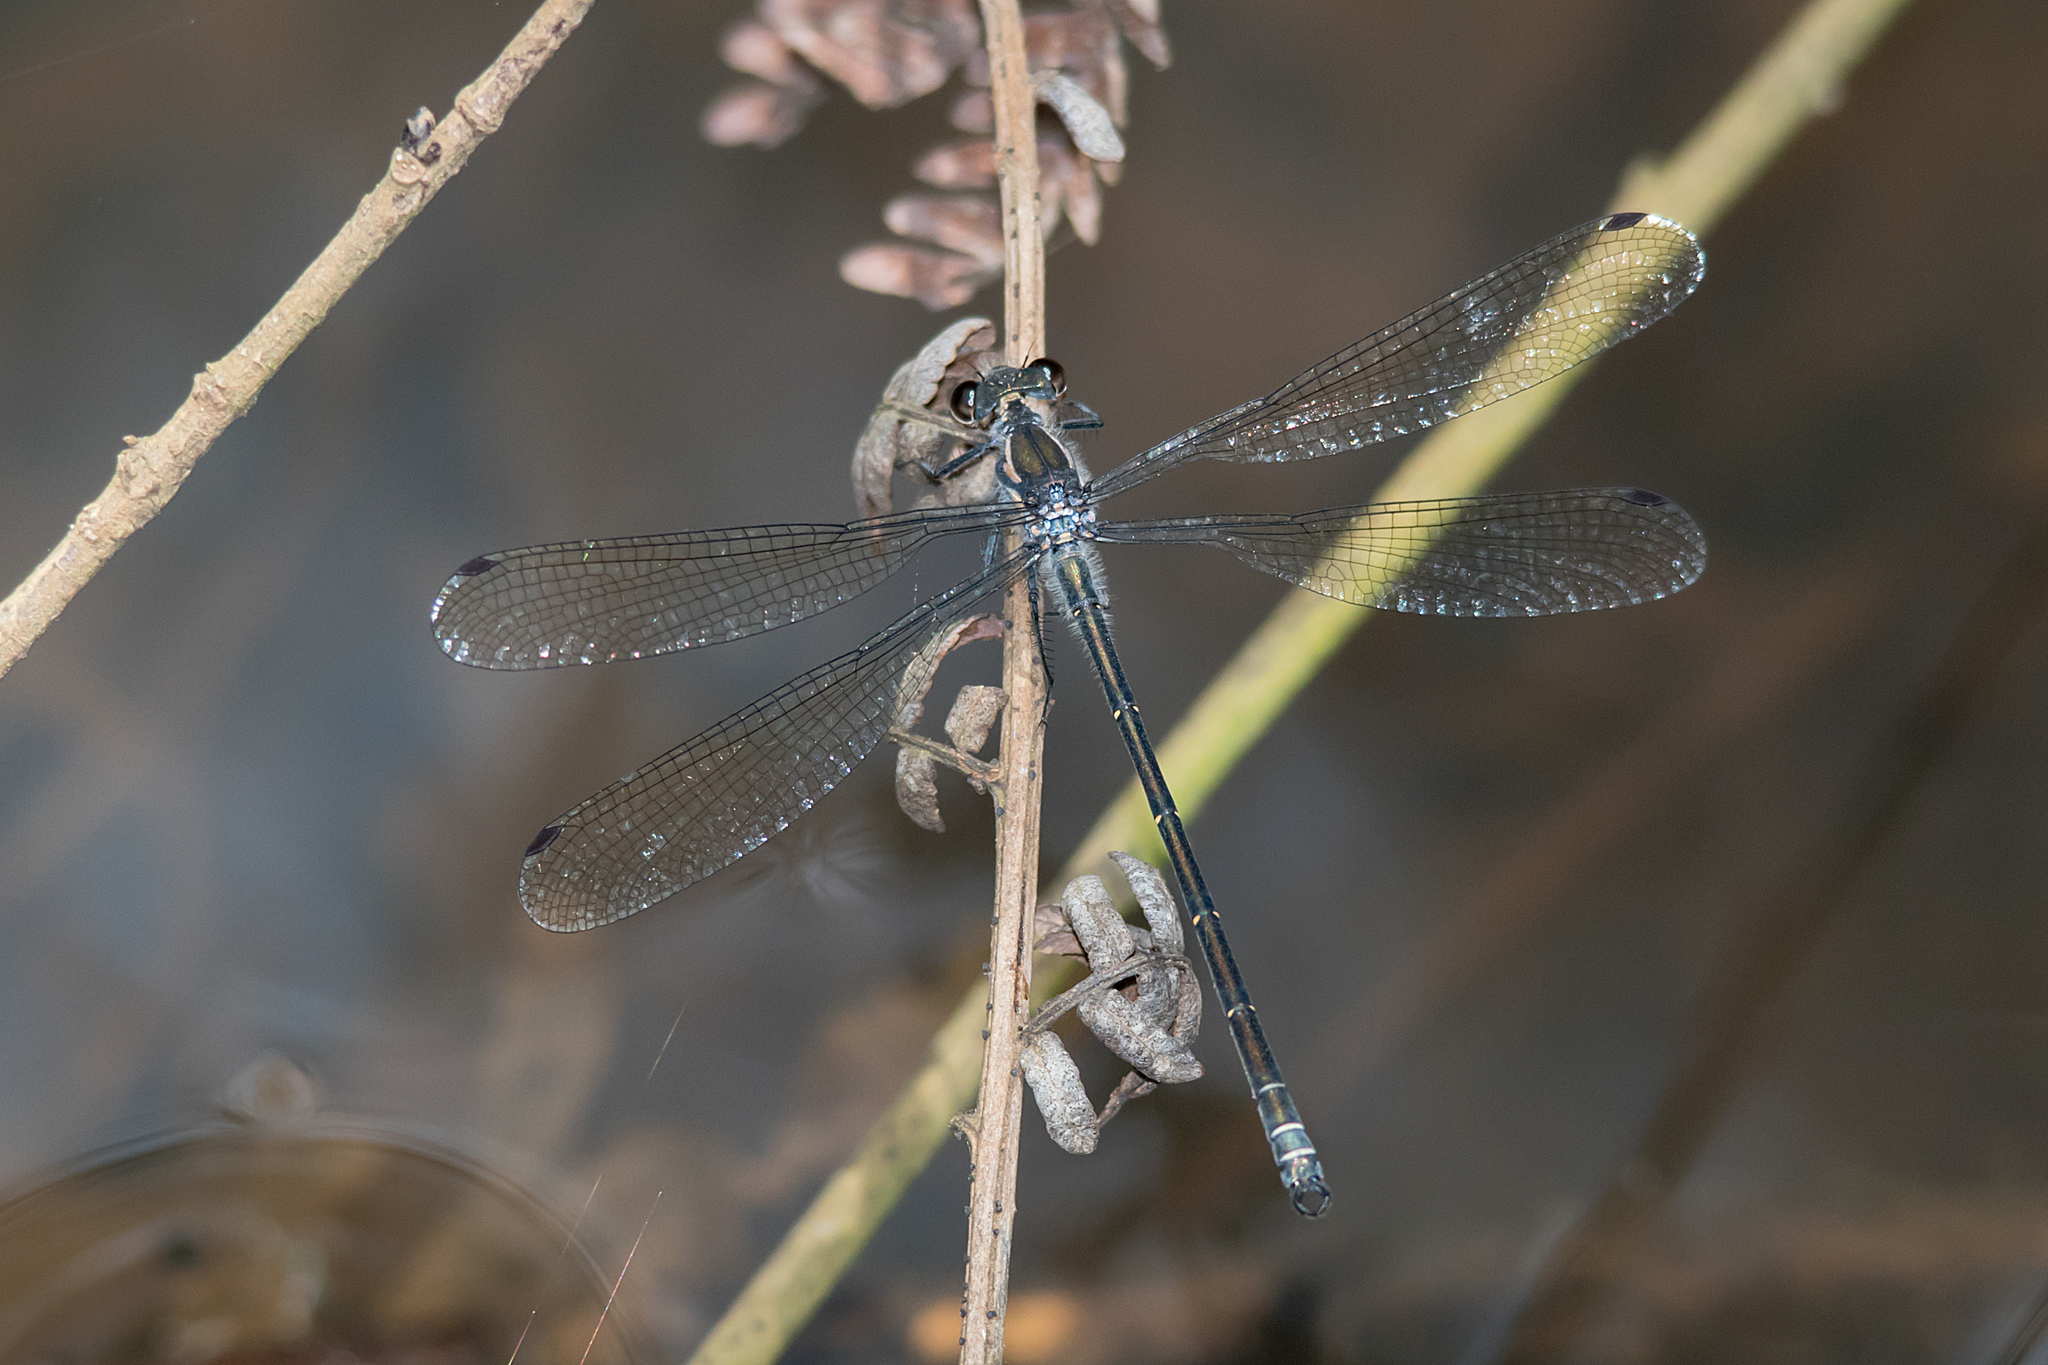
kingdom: Animalia
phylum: Arthropoda
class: Insecta
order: Odonata
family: Argiolestidae
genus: Austroargiolestes
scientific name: Austroargiolestes icteromelas
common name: Common flatwing
